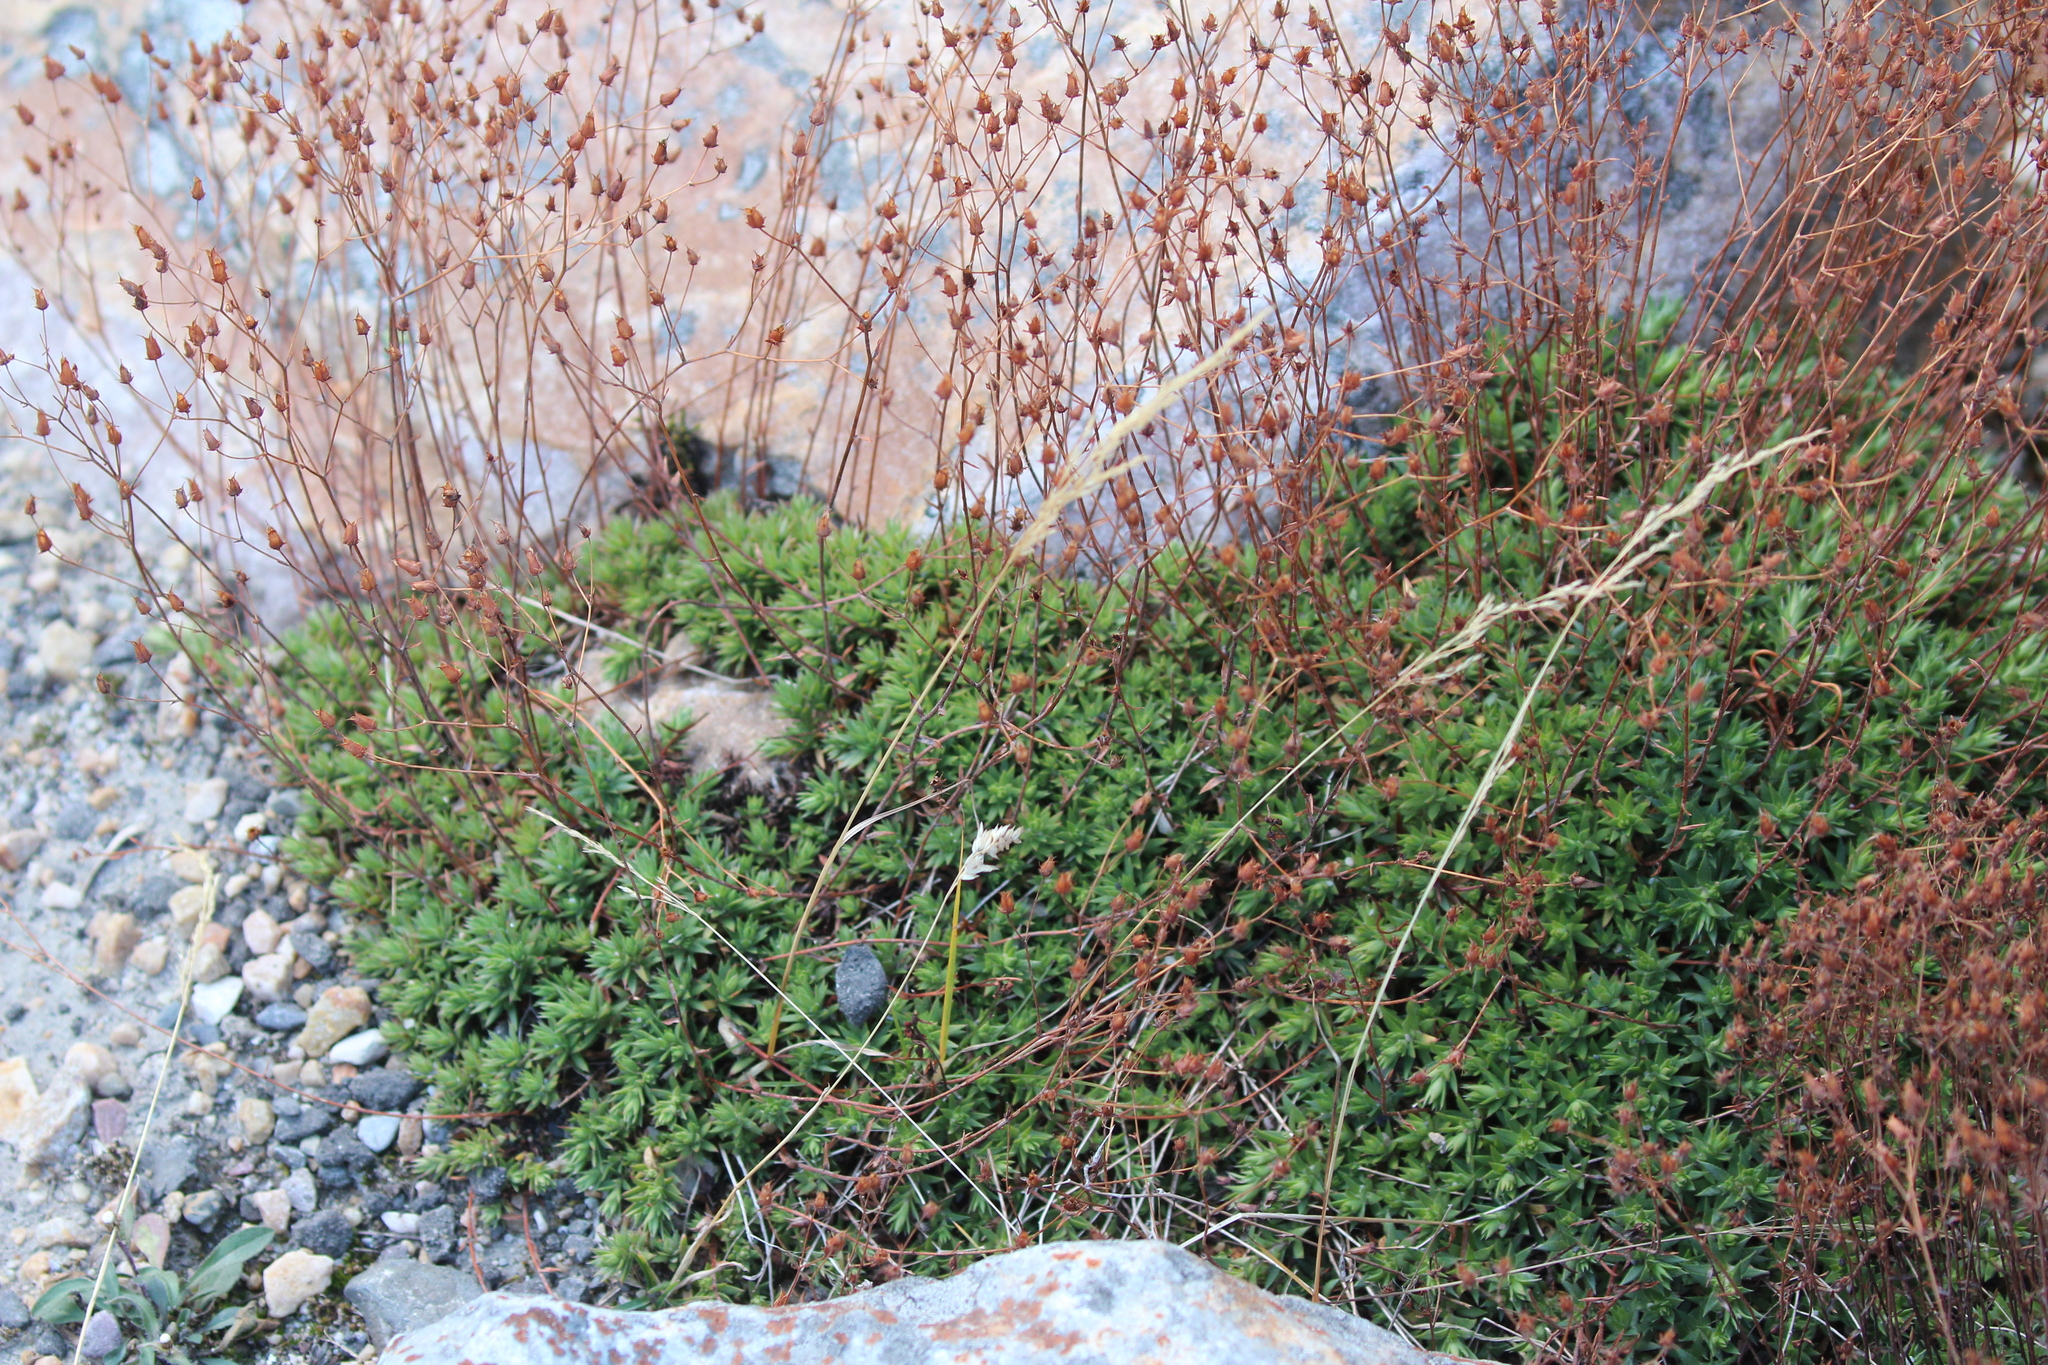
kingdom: Plantae
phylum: Tracheophyta
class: Magnoliopsida
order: Saxifragales
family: Saxifragaceae
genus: Saxifraga
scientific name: Saxifraga bronchialis
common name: Matted saxifrage
